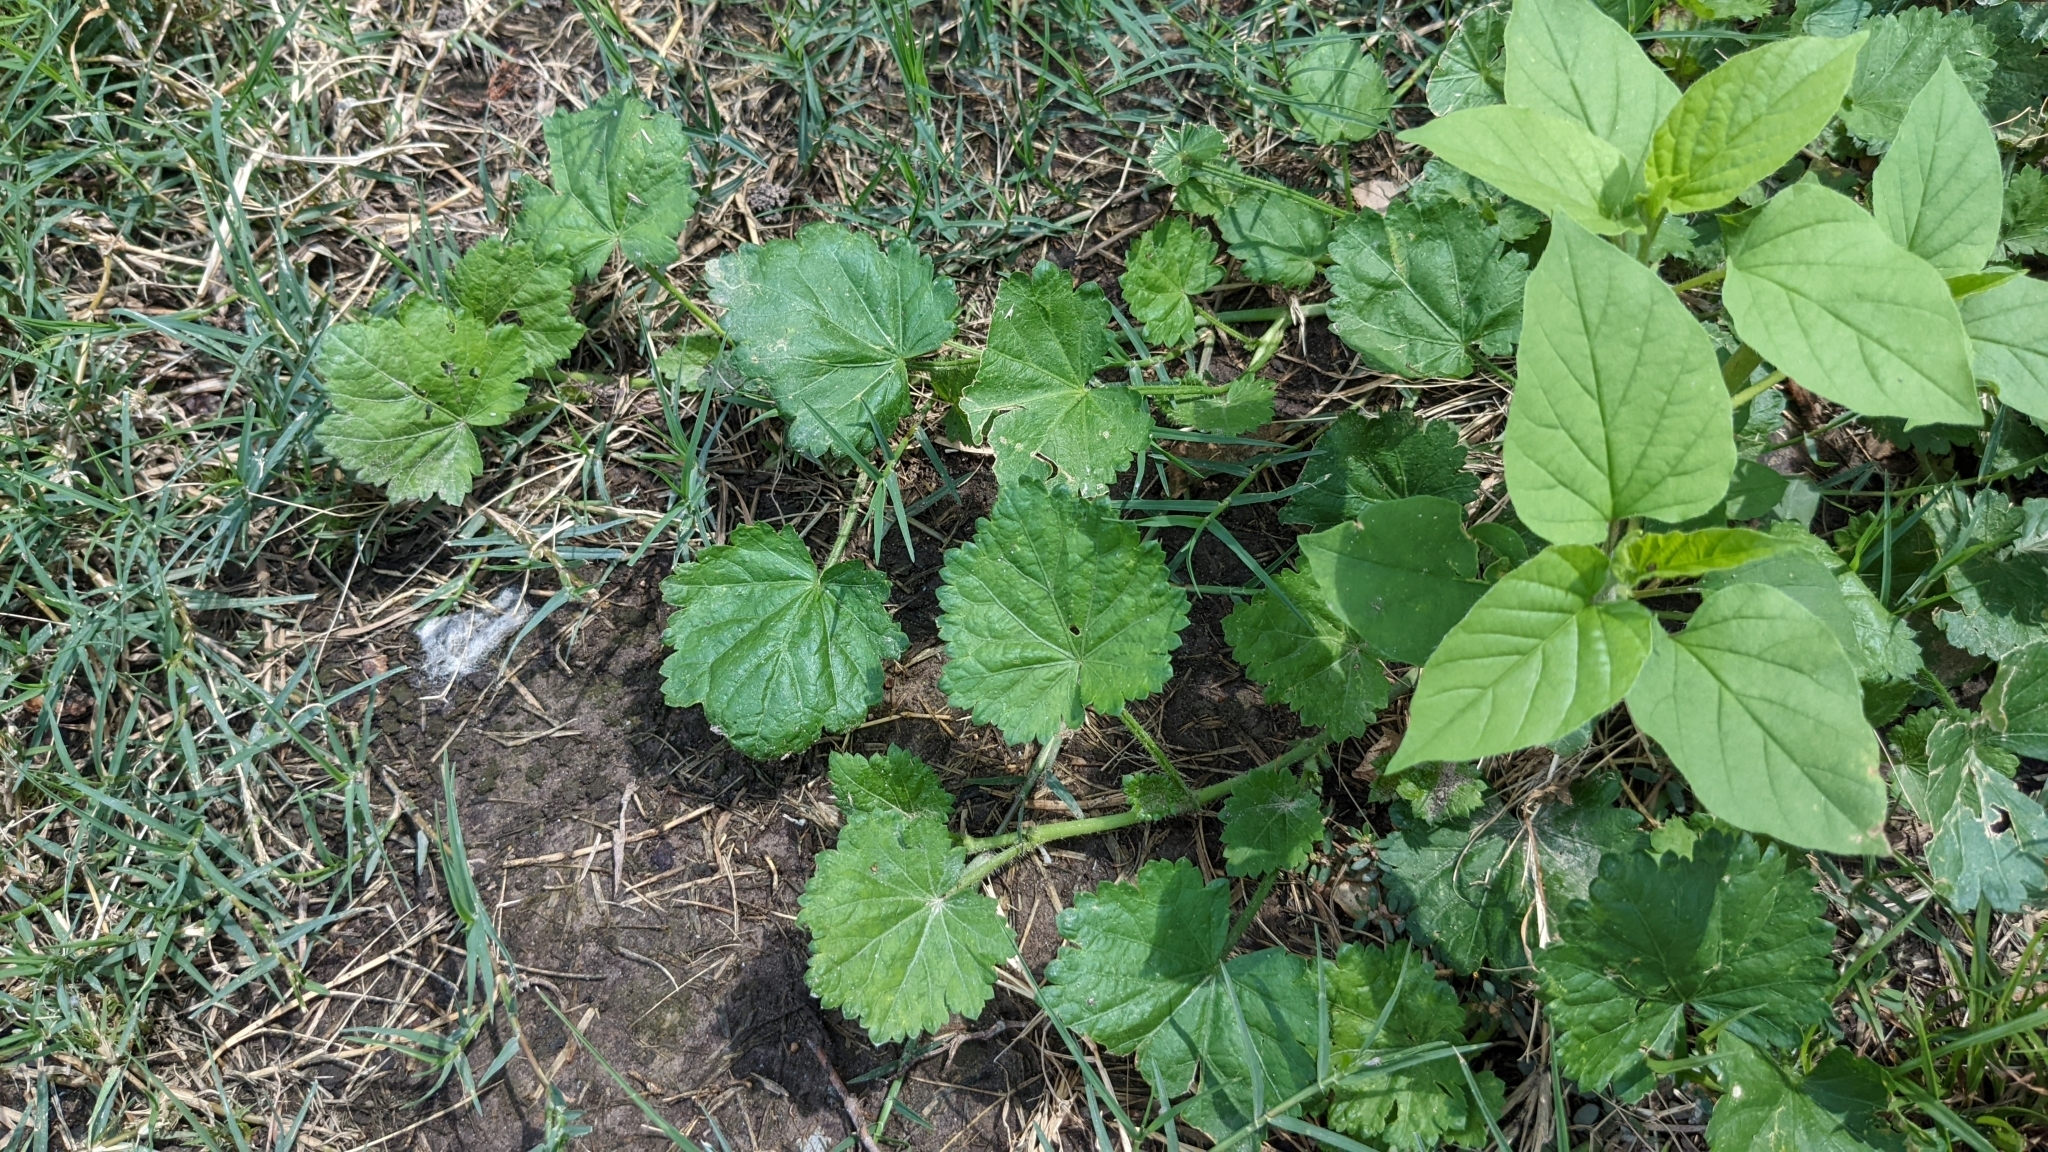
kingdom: Plantae
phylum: Tracheophyta
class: Magnoliopsida
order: Malvales
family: Malvaceae
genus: Modiola
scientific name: Modiola caroliniana
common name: Carolina bristlemallow
